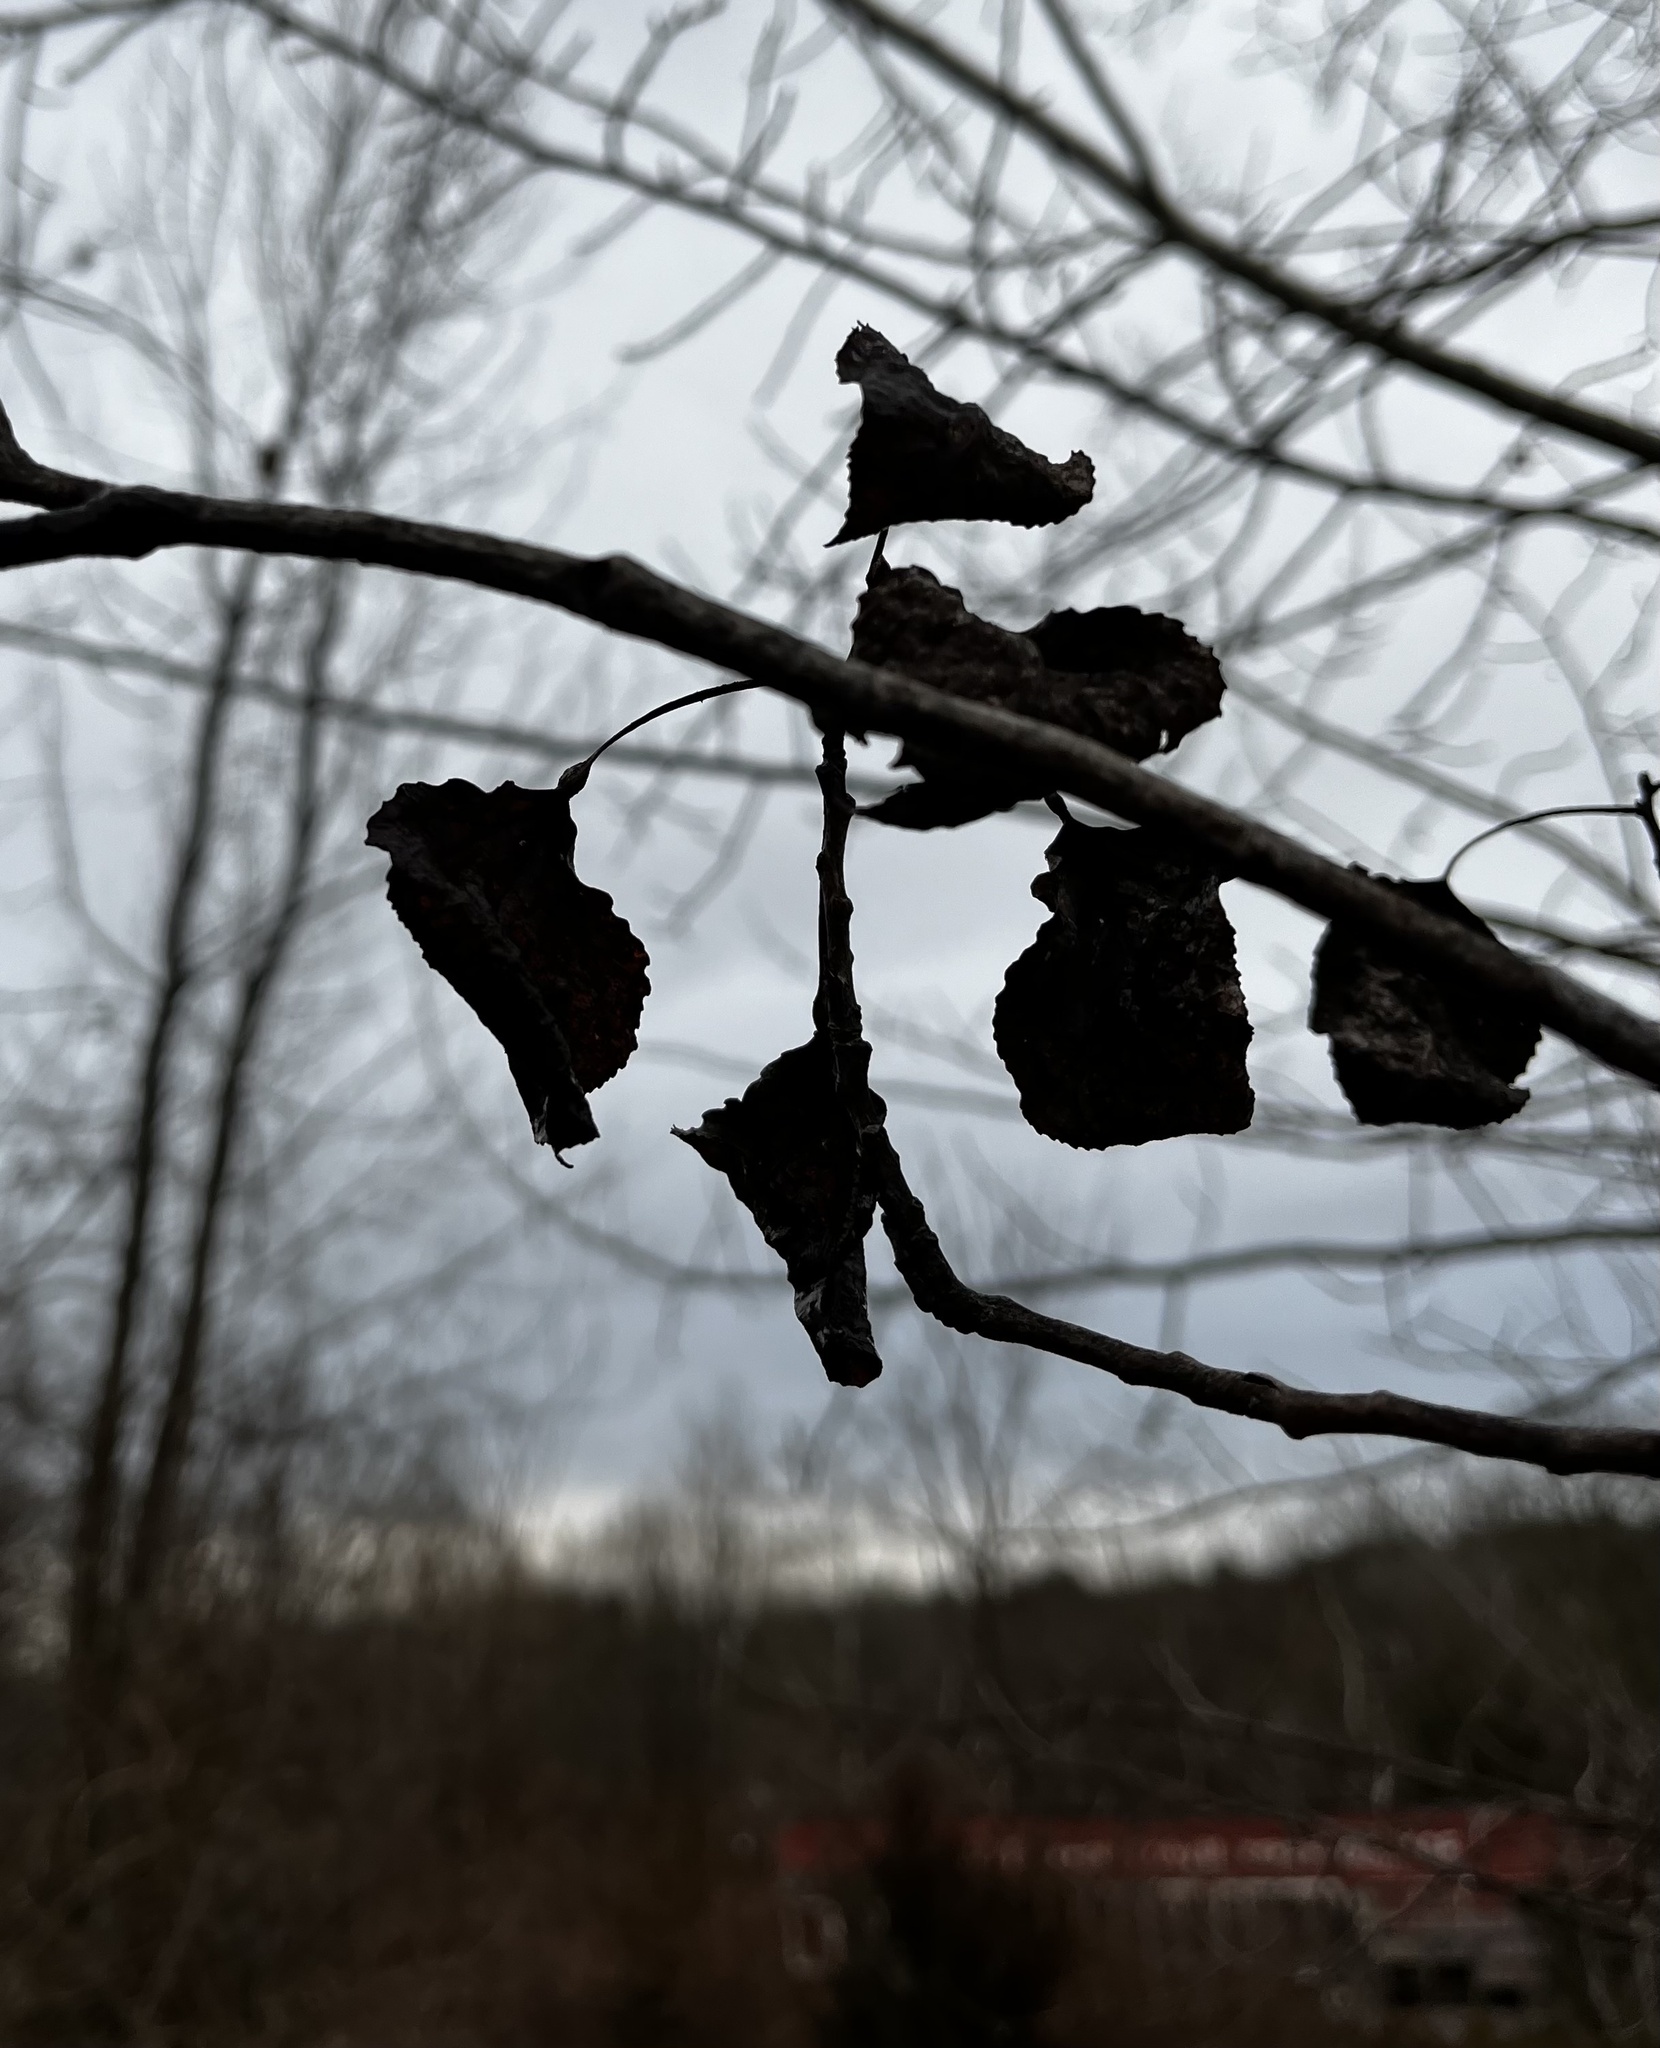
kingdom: Plantae
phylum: Tracheophyta
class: Magnoliopsida
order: Malpighiales
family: Salicaceae
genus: Populus
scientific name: Populus tremuloides
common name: Quaking aspen
